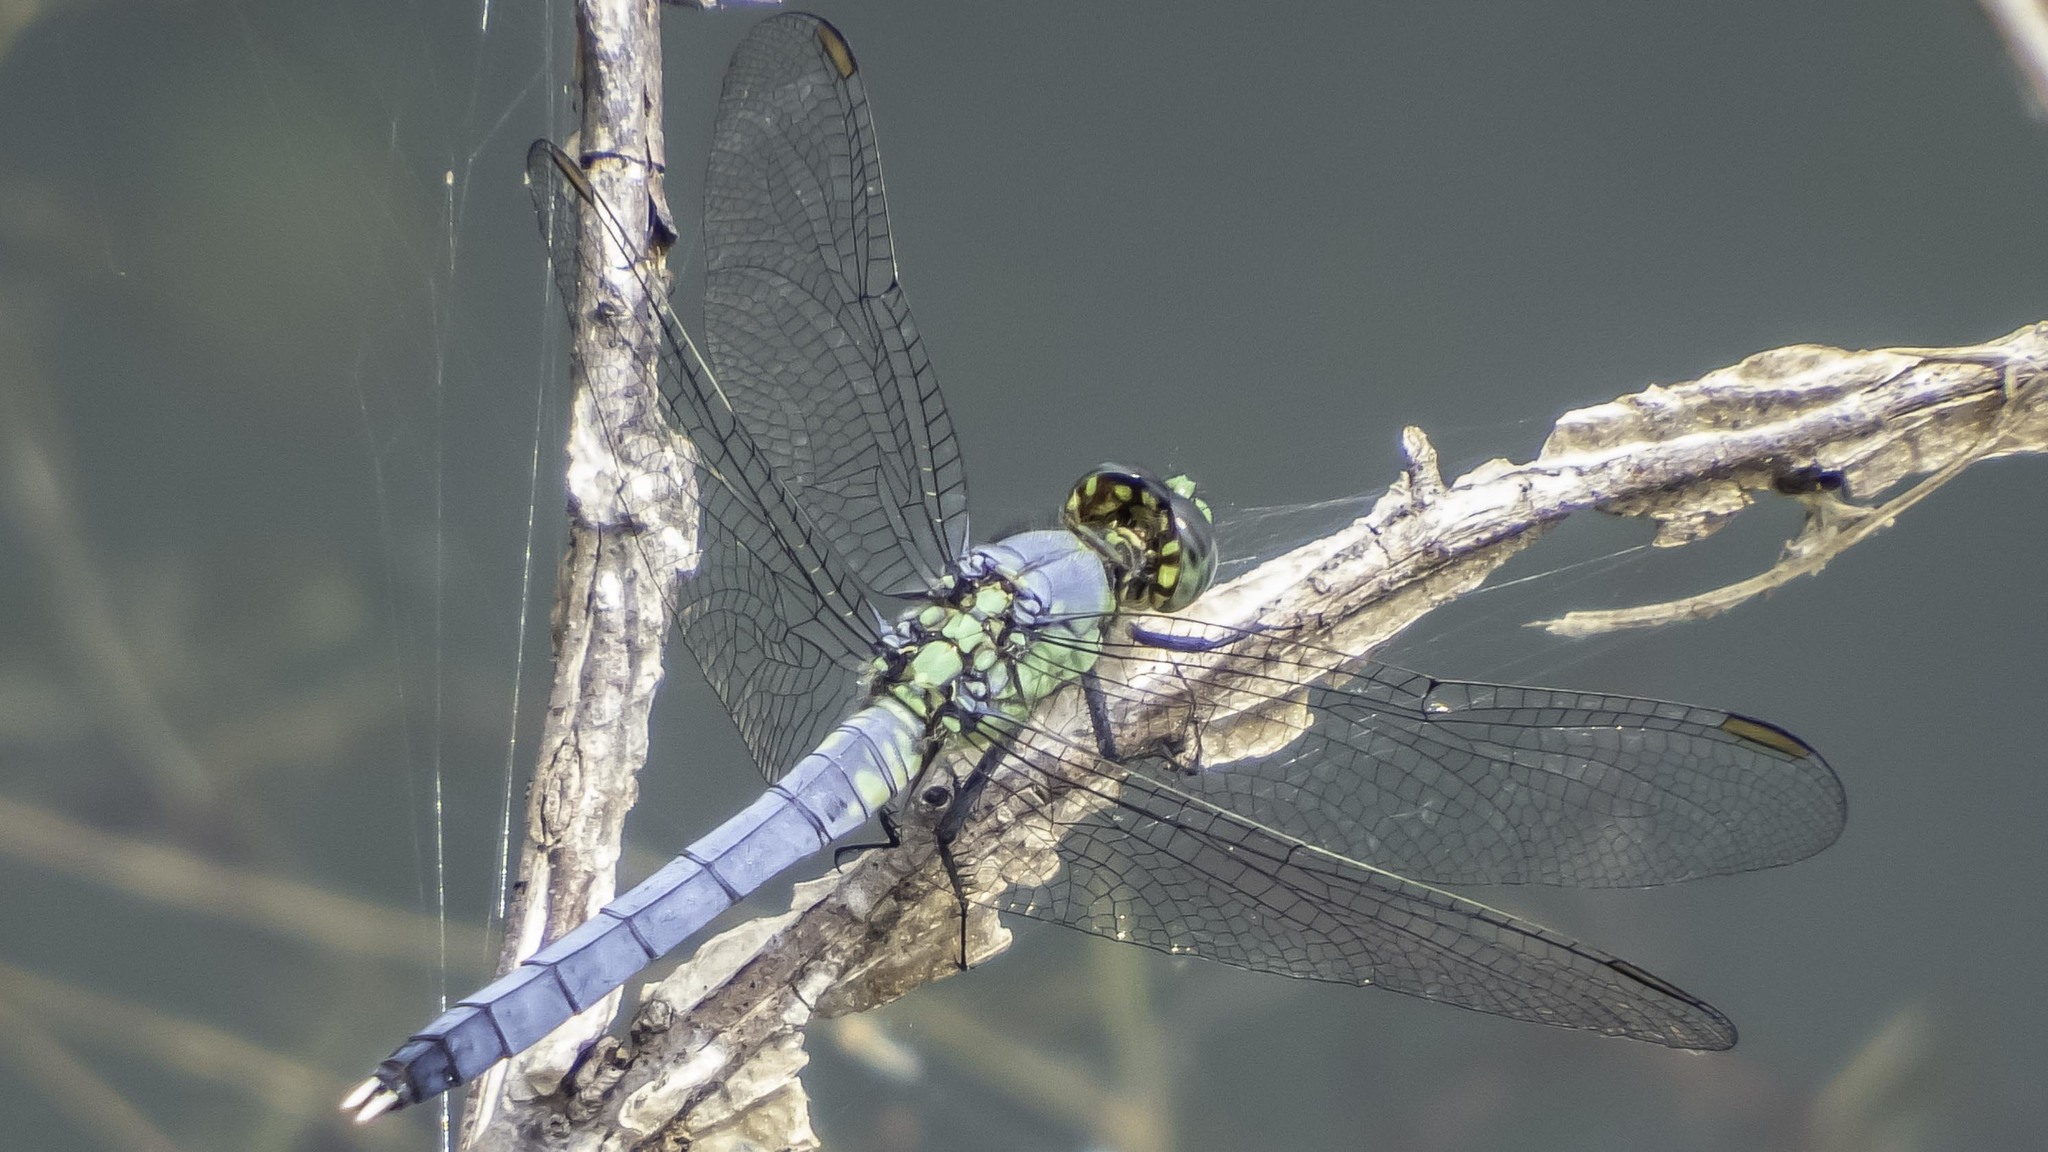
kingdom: Animalia
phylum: Arthropoda
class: Insecta
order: Odonata
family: Libellulidae
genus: Erythemis
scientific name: Erythemis simplicicollis
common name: Eastern pondhawk
